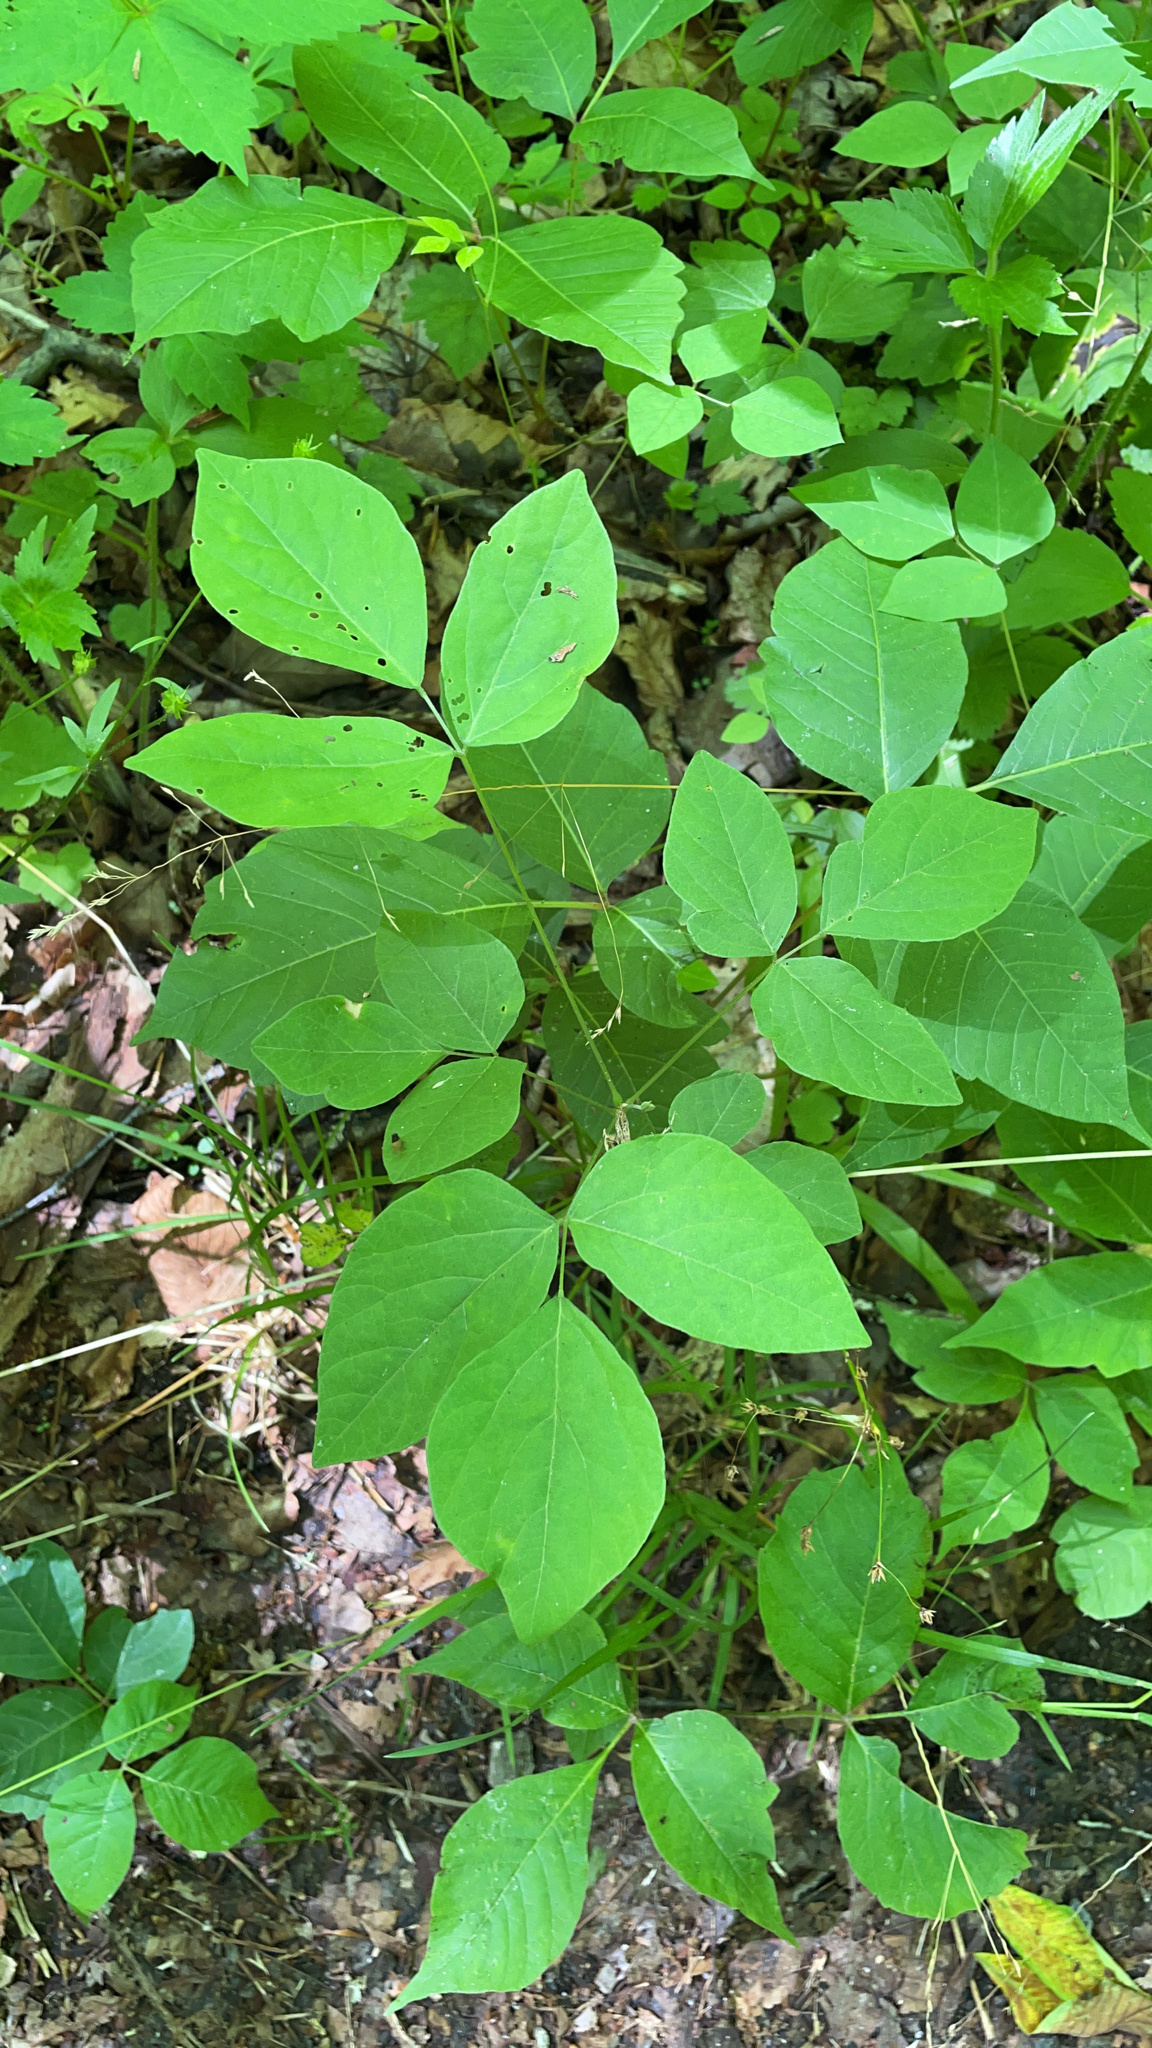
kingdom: Plantae
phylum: Tracheophyta
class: Magnoliopsida
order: Fabales
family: Fabaceae
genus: Amphicarpaea
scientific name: Amphicarpaea bracteata
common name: American hog peanut
